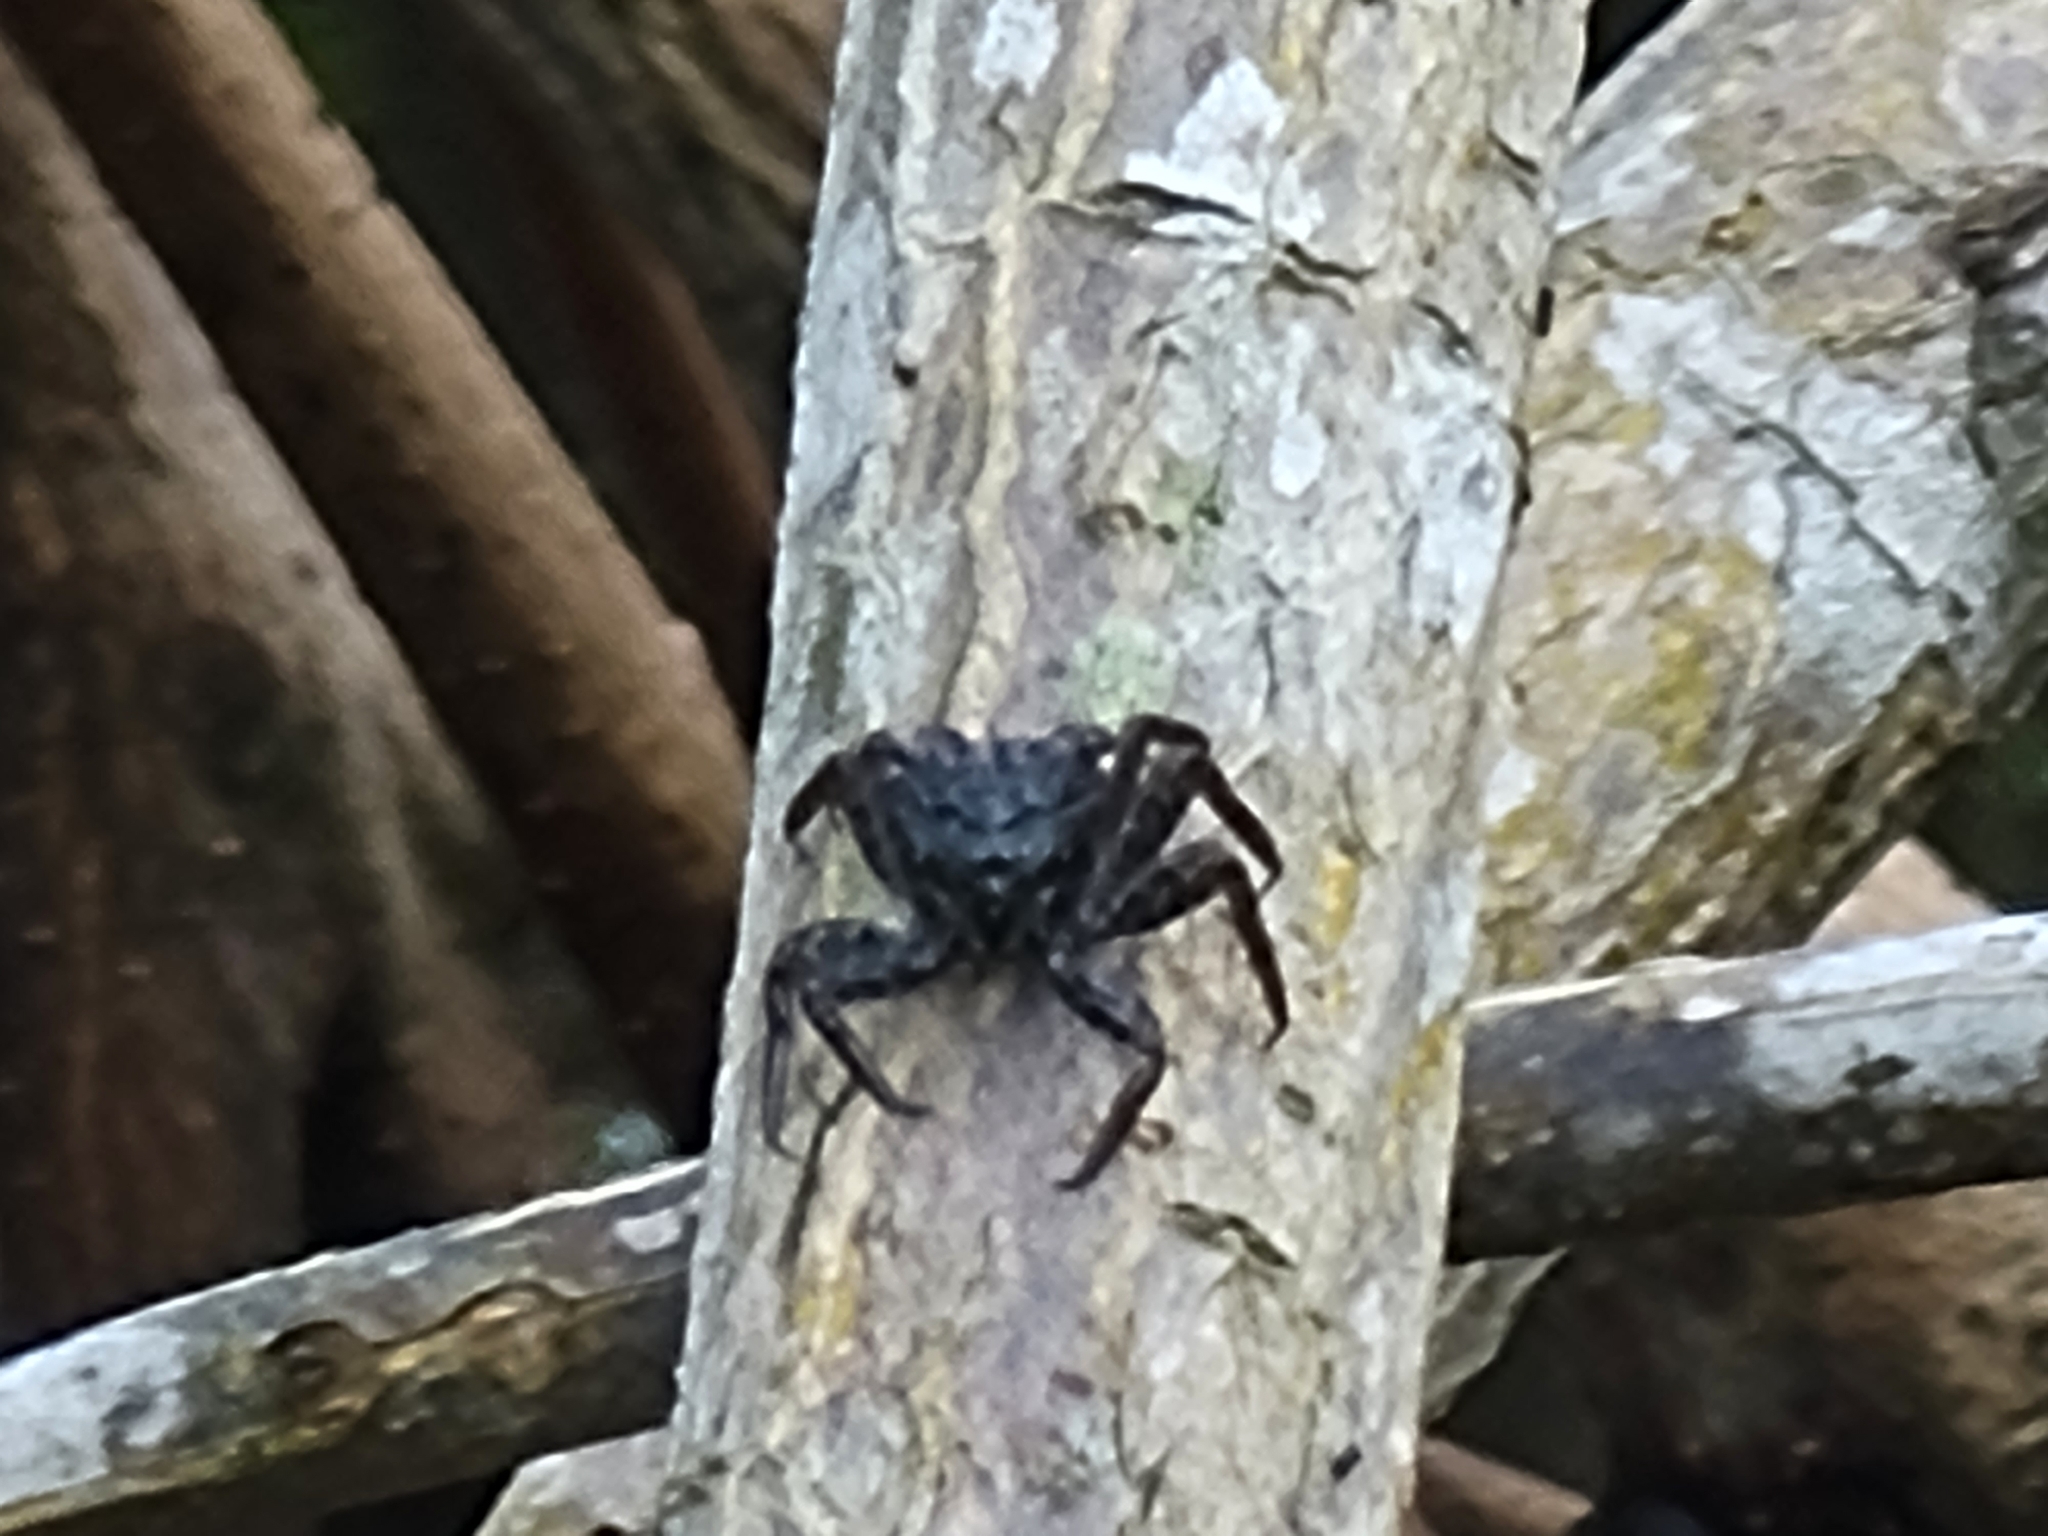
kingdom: Animalia
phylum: Arthropoda
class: Malacostraca
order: Decapoda
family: Sesarmidae
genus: Aratus
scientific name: Aratus pisonii
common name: Mangrove crab
